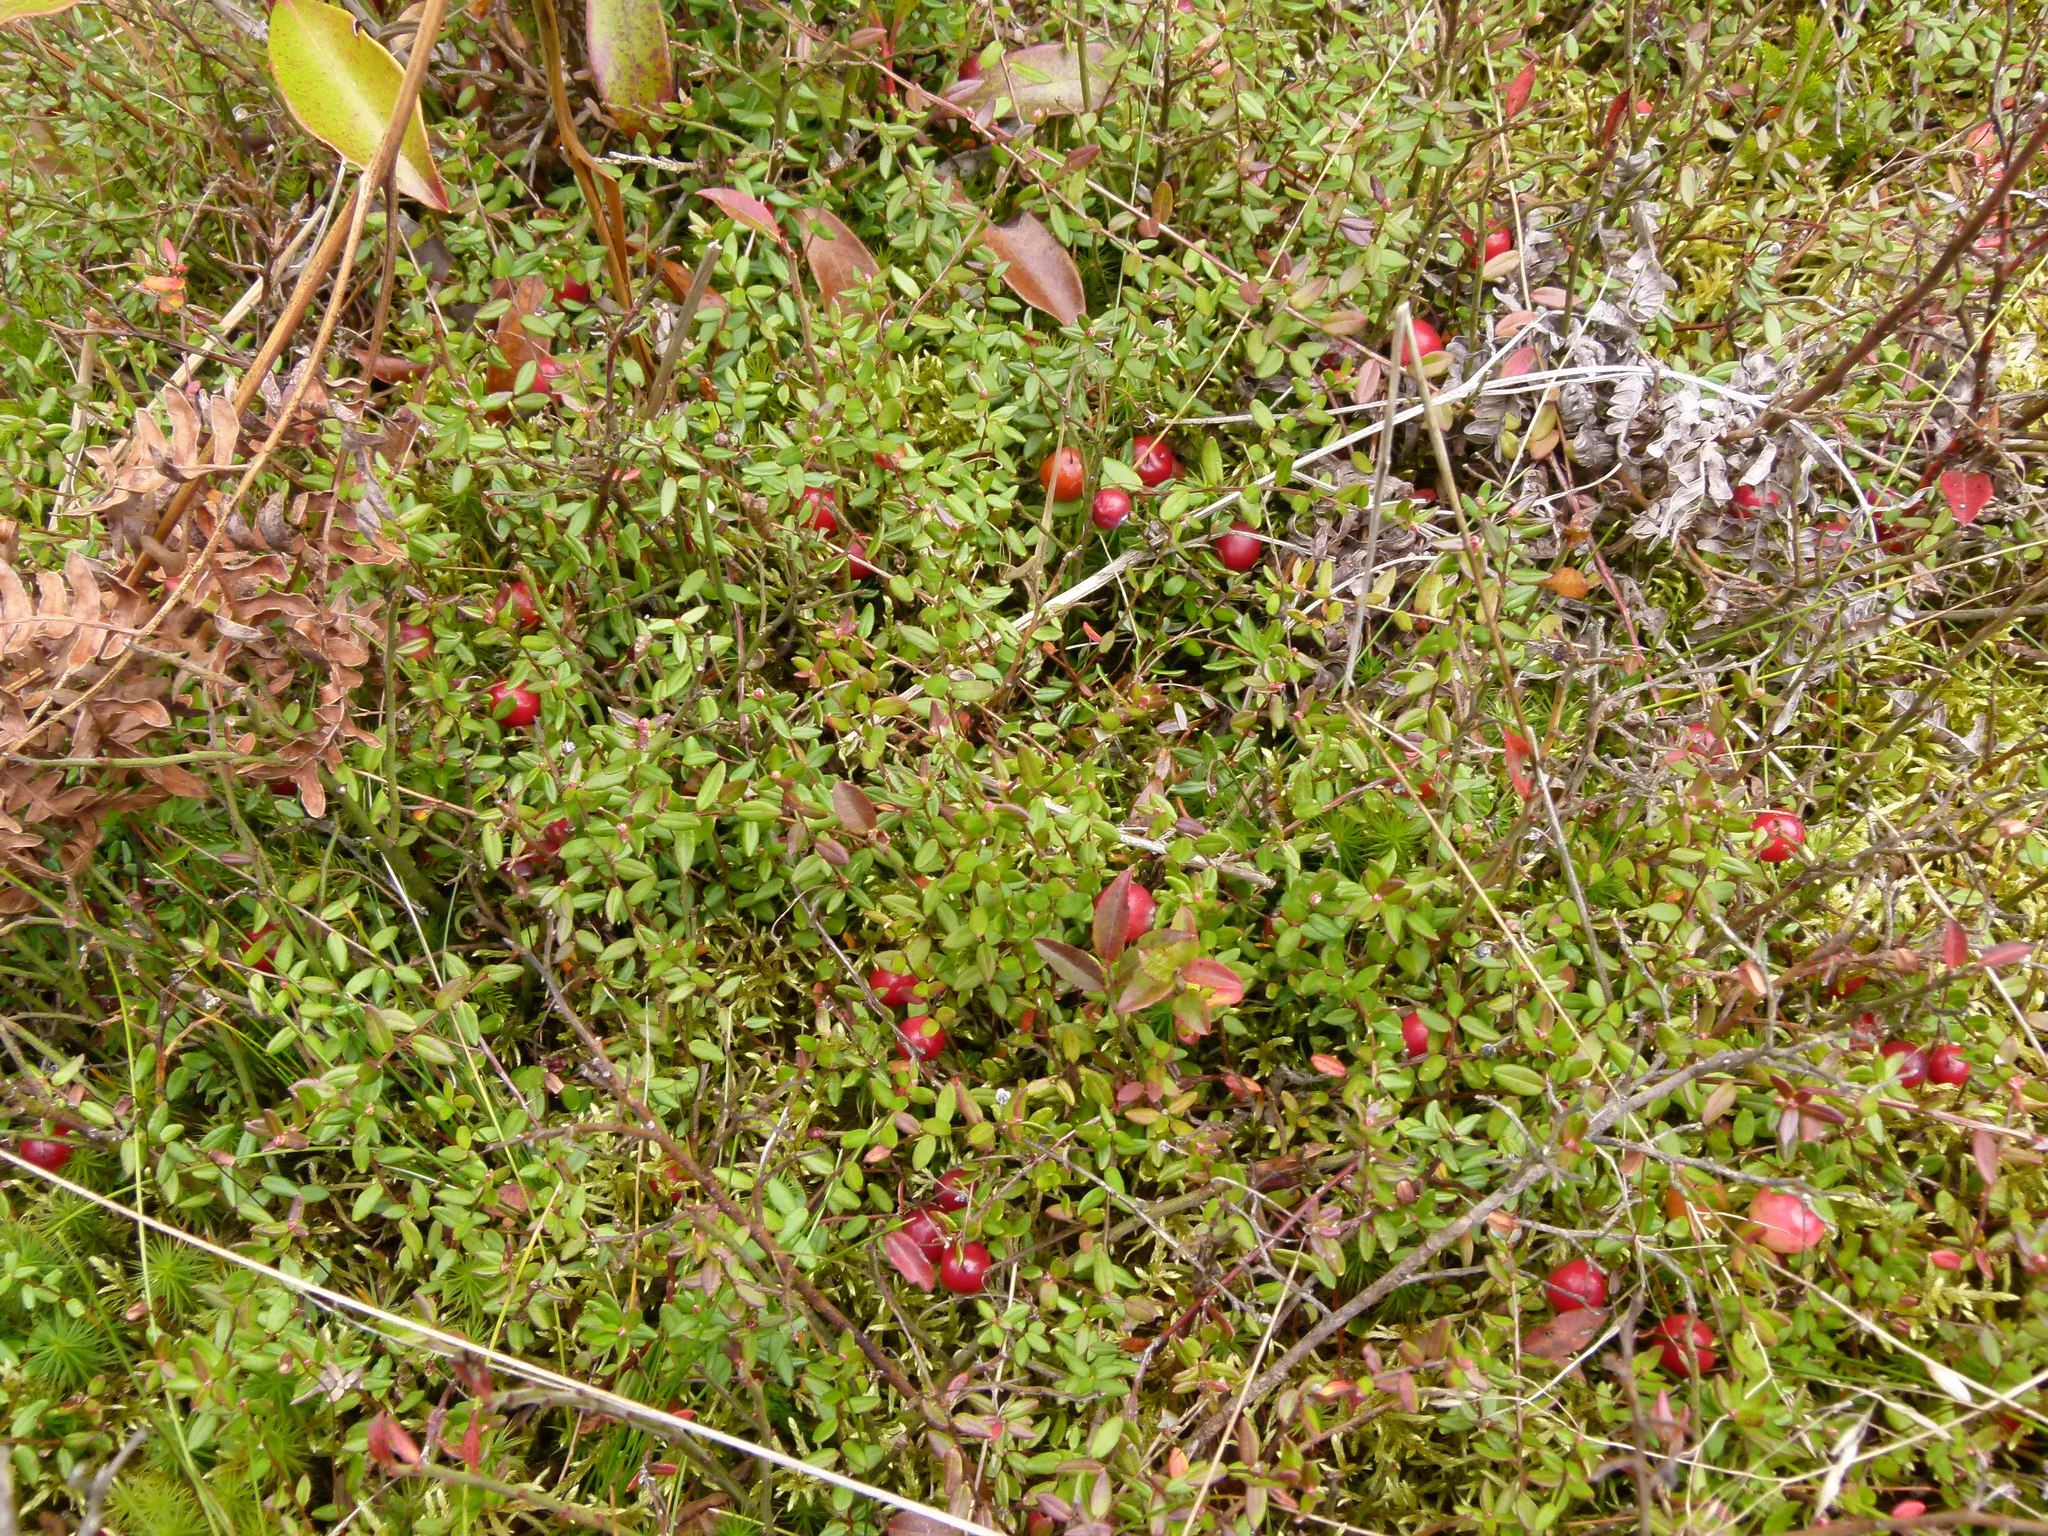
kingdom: Plantae
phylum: Tracheophyta
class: Magnoliopsida
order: Ericales
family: Ericaceae
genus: Vaccinium
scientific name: Vaccinium oxycoccos
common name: Cranberry
